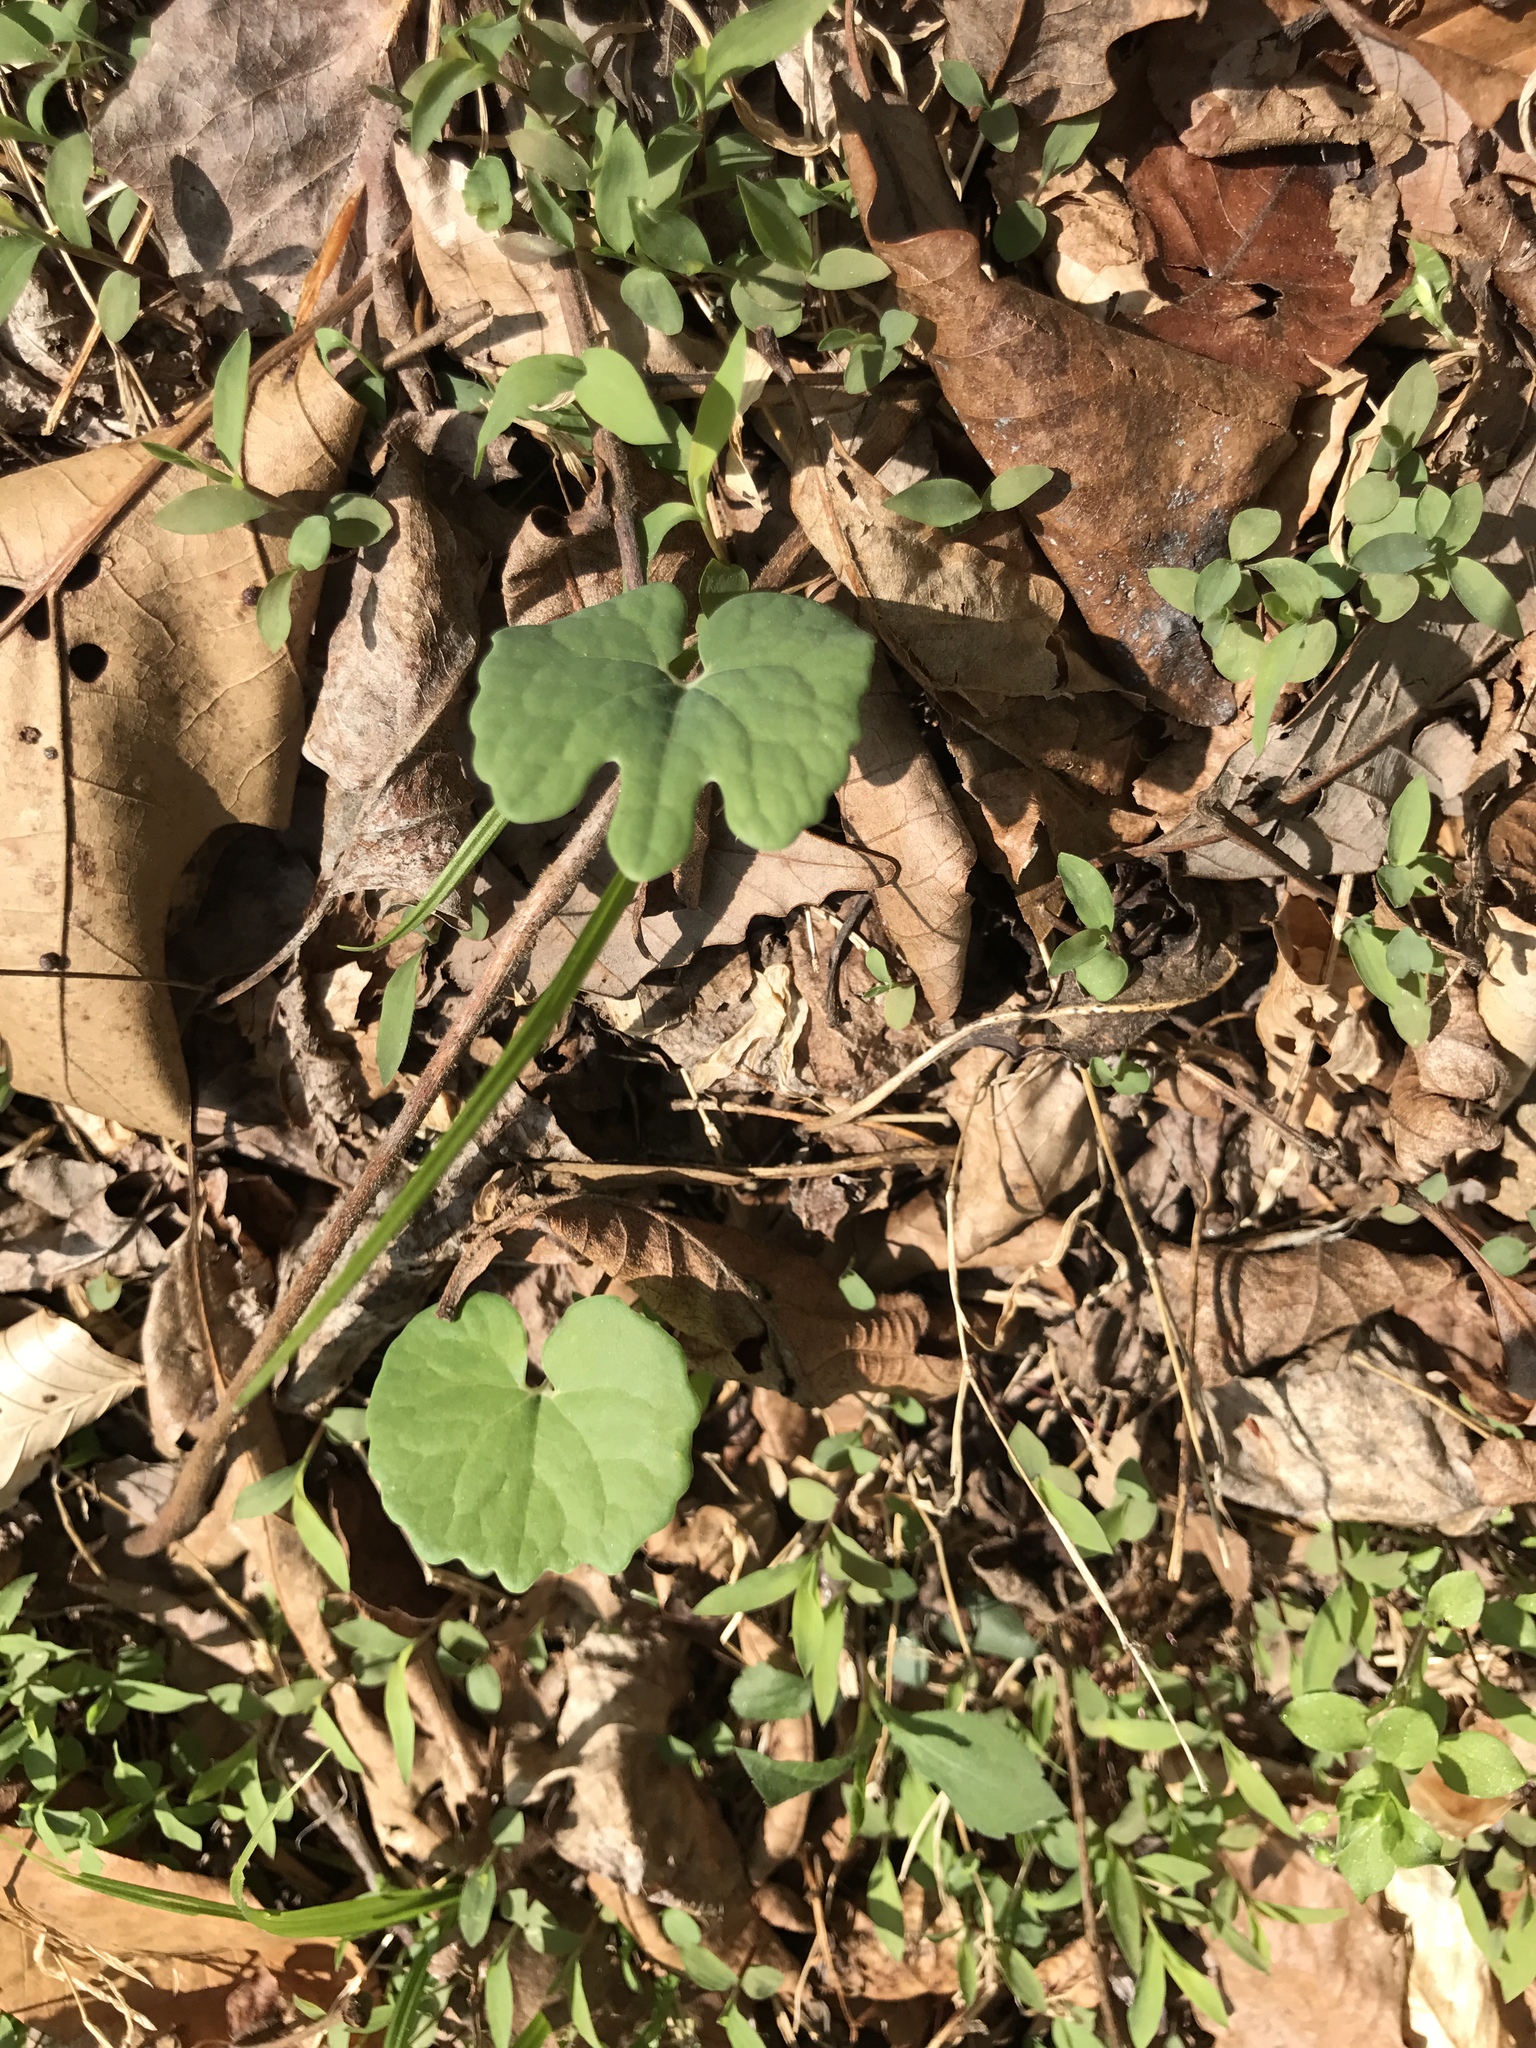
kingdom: Plantae
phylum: Tracheophyta
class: Magnoliopsida
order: Ranunculales
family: Papaveraceae
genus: Sanguinaria
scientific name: Sanguinaria canadensis
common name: Bloodroot
